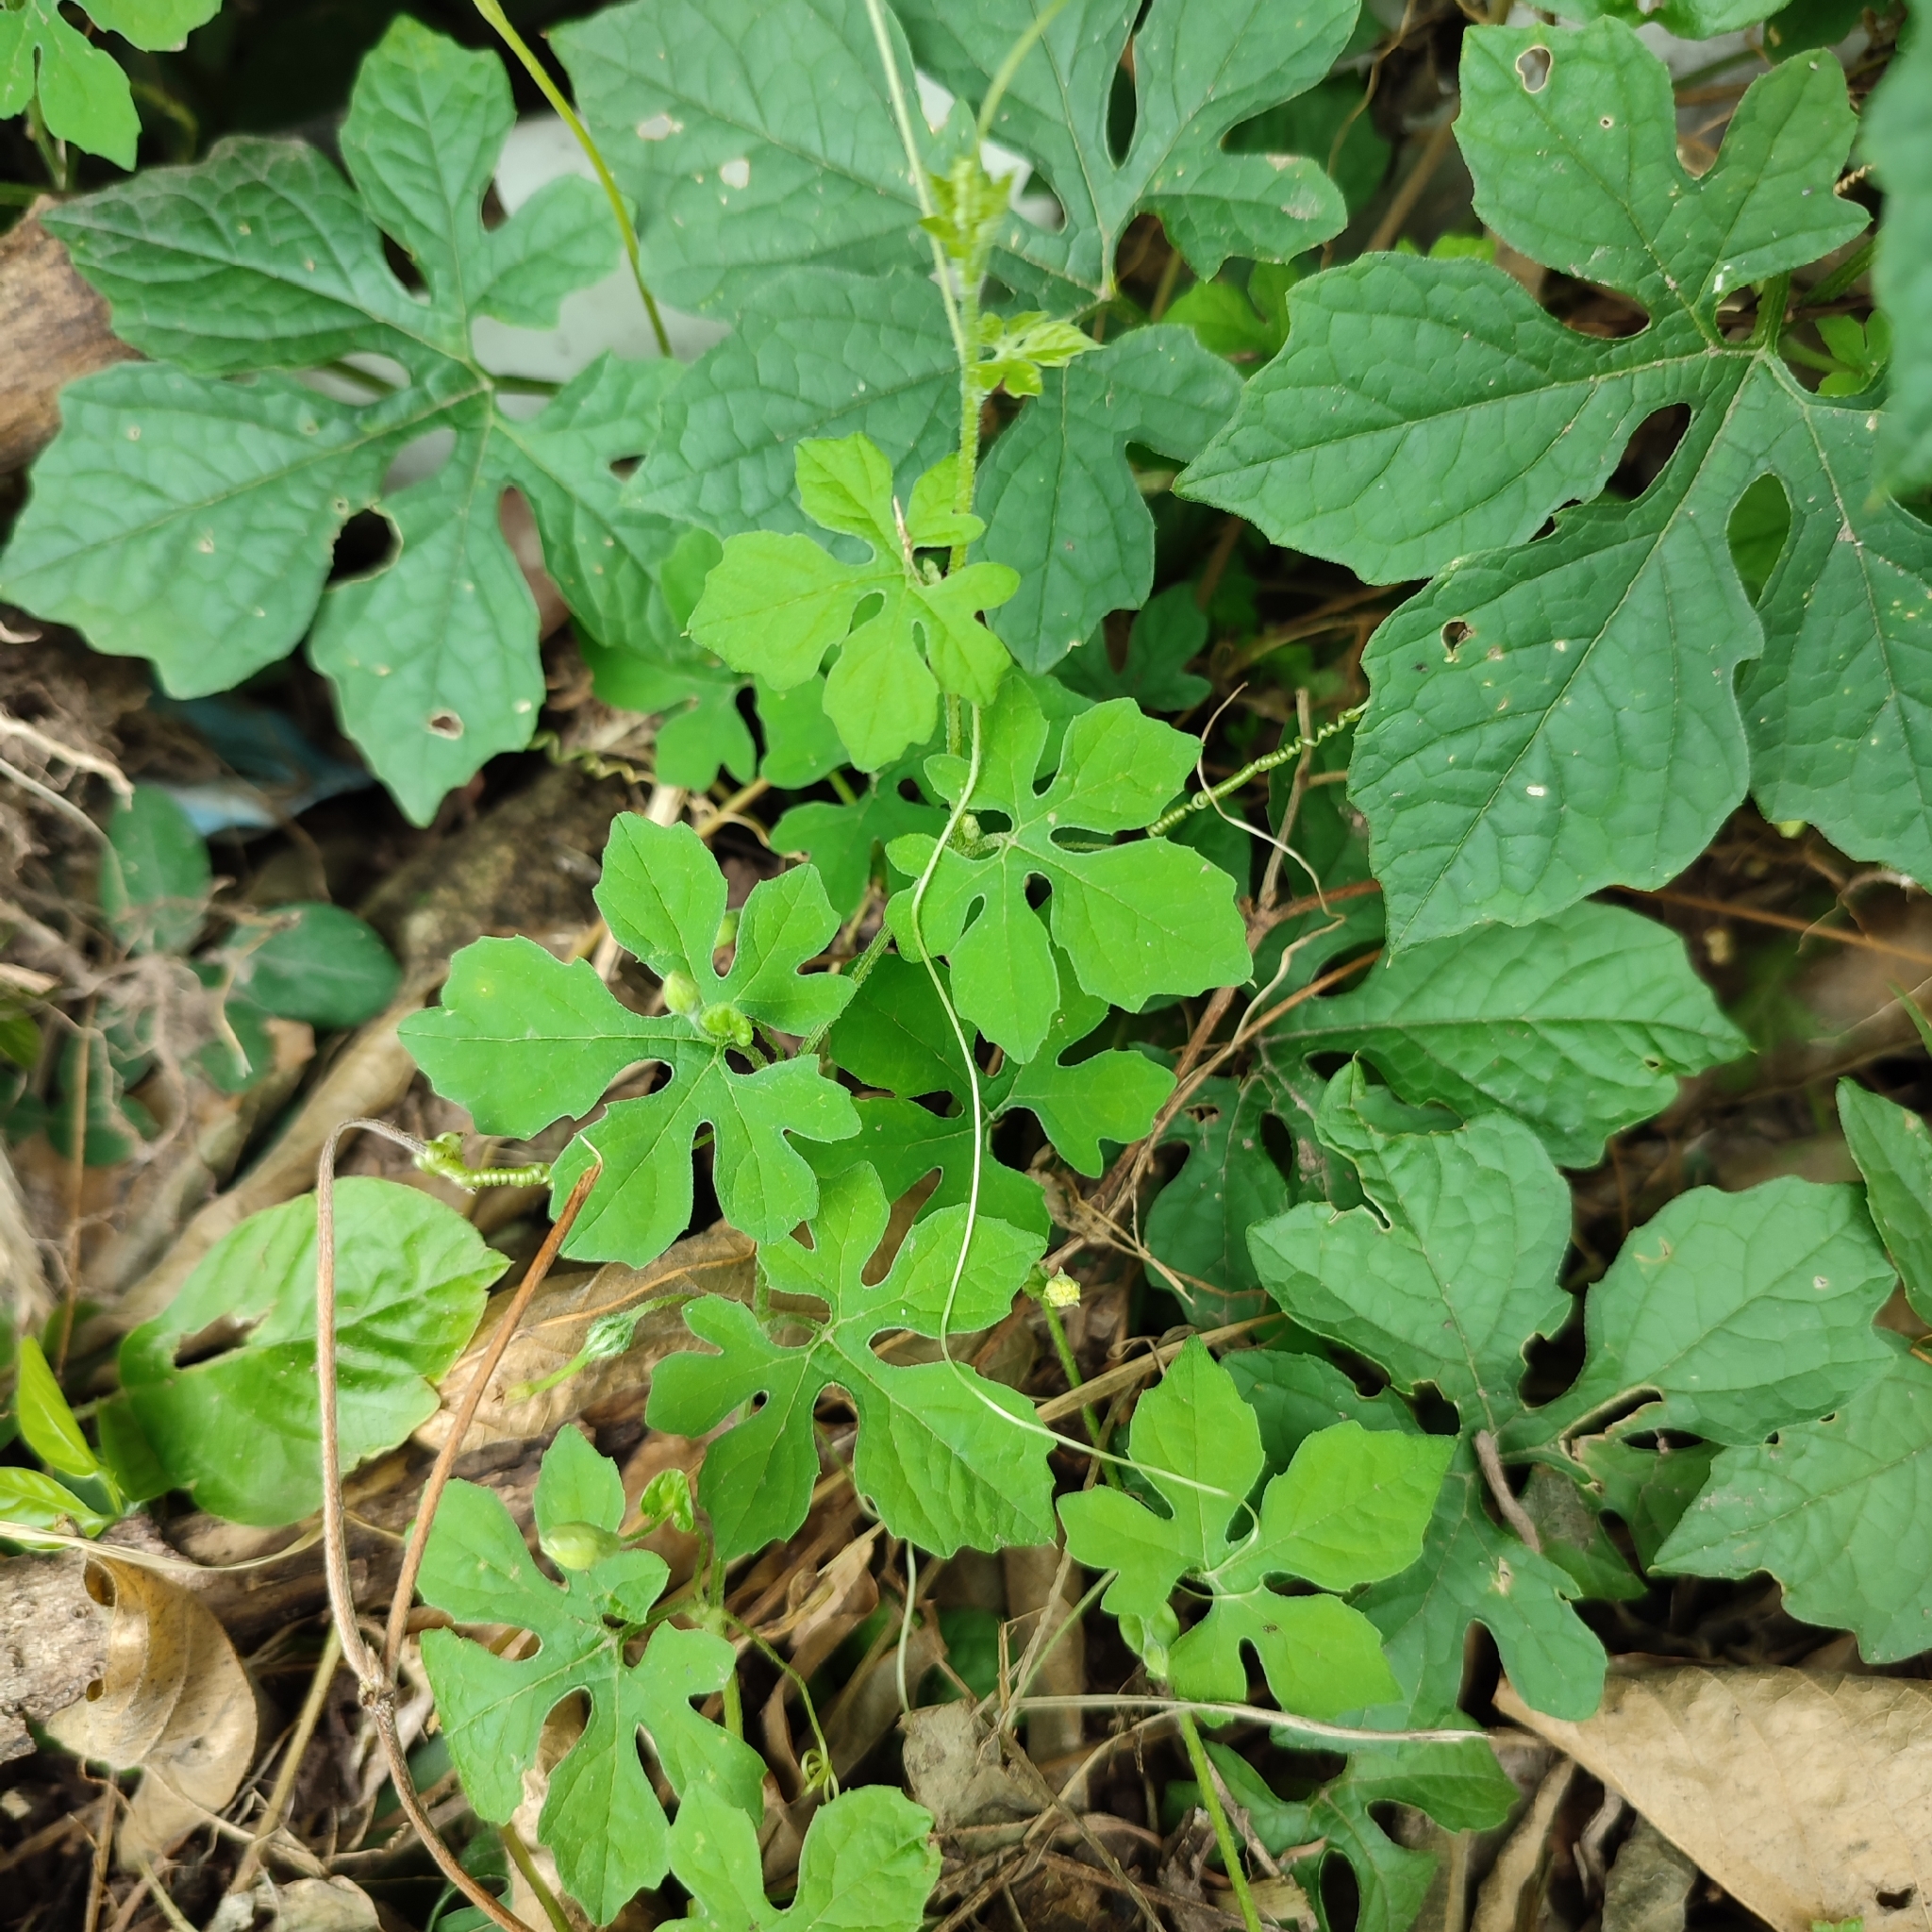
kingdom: Plantae
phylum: Tracheophyta
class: Magnoliopsida
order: Cucurbitales
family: Cucurbitaceae
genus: Momordica
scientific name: Momordica charantia
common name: Balsampear
